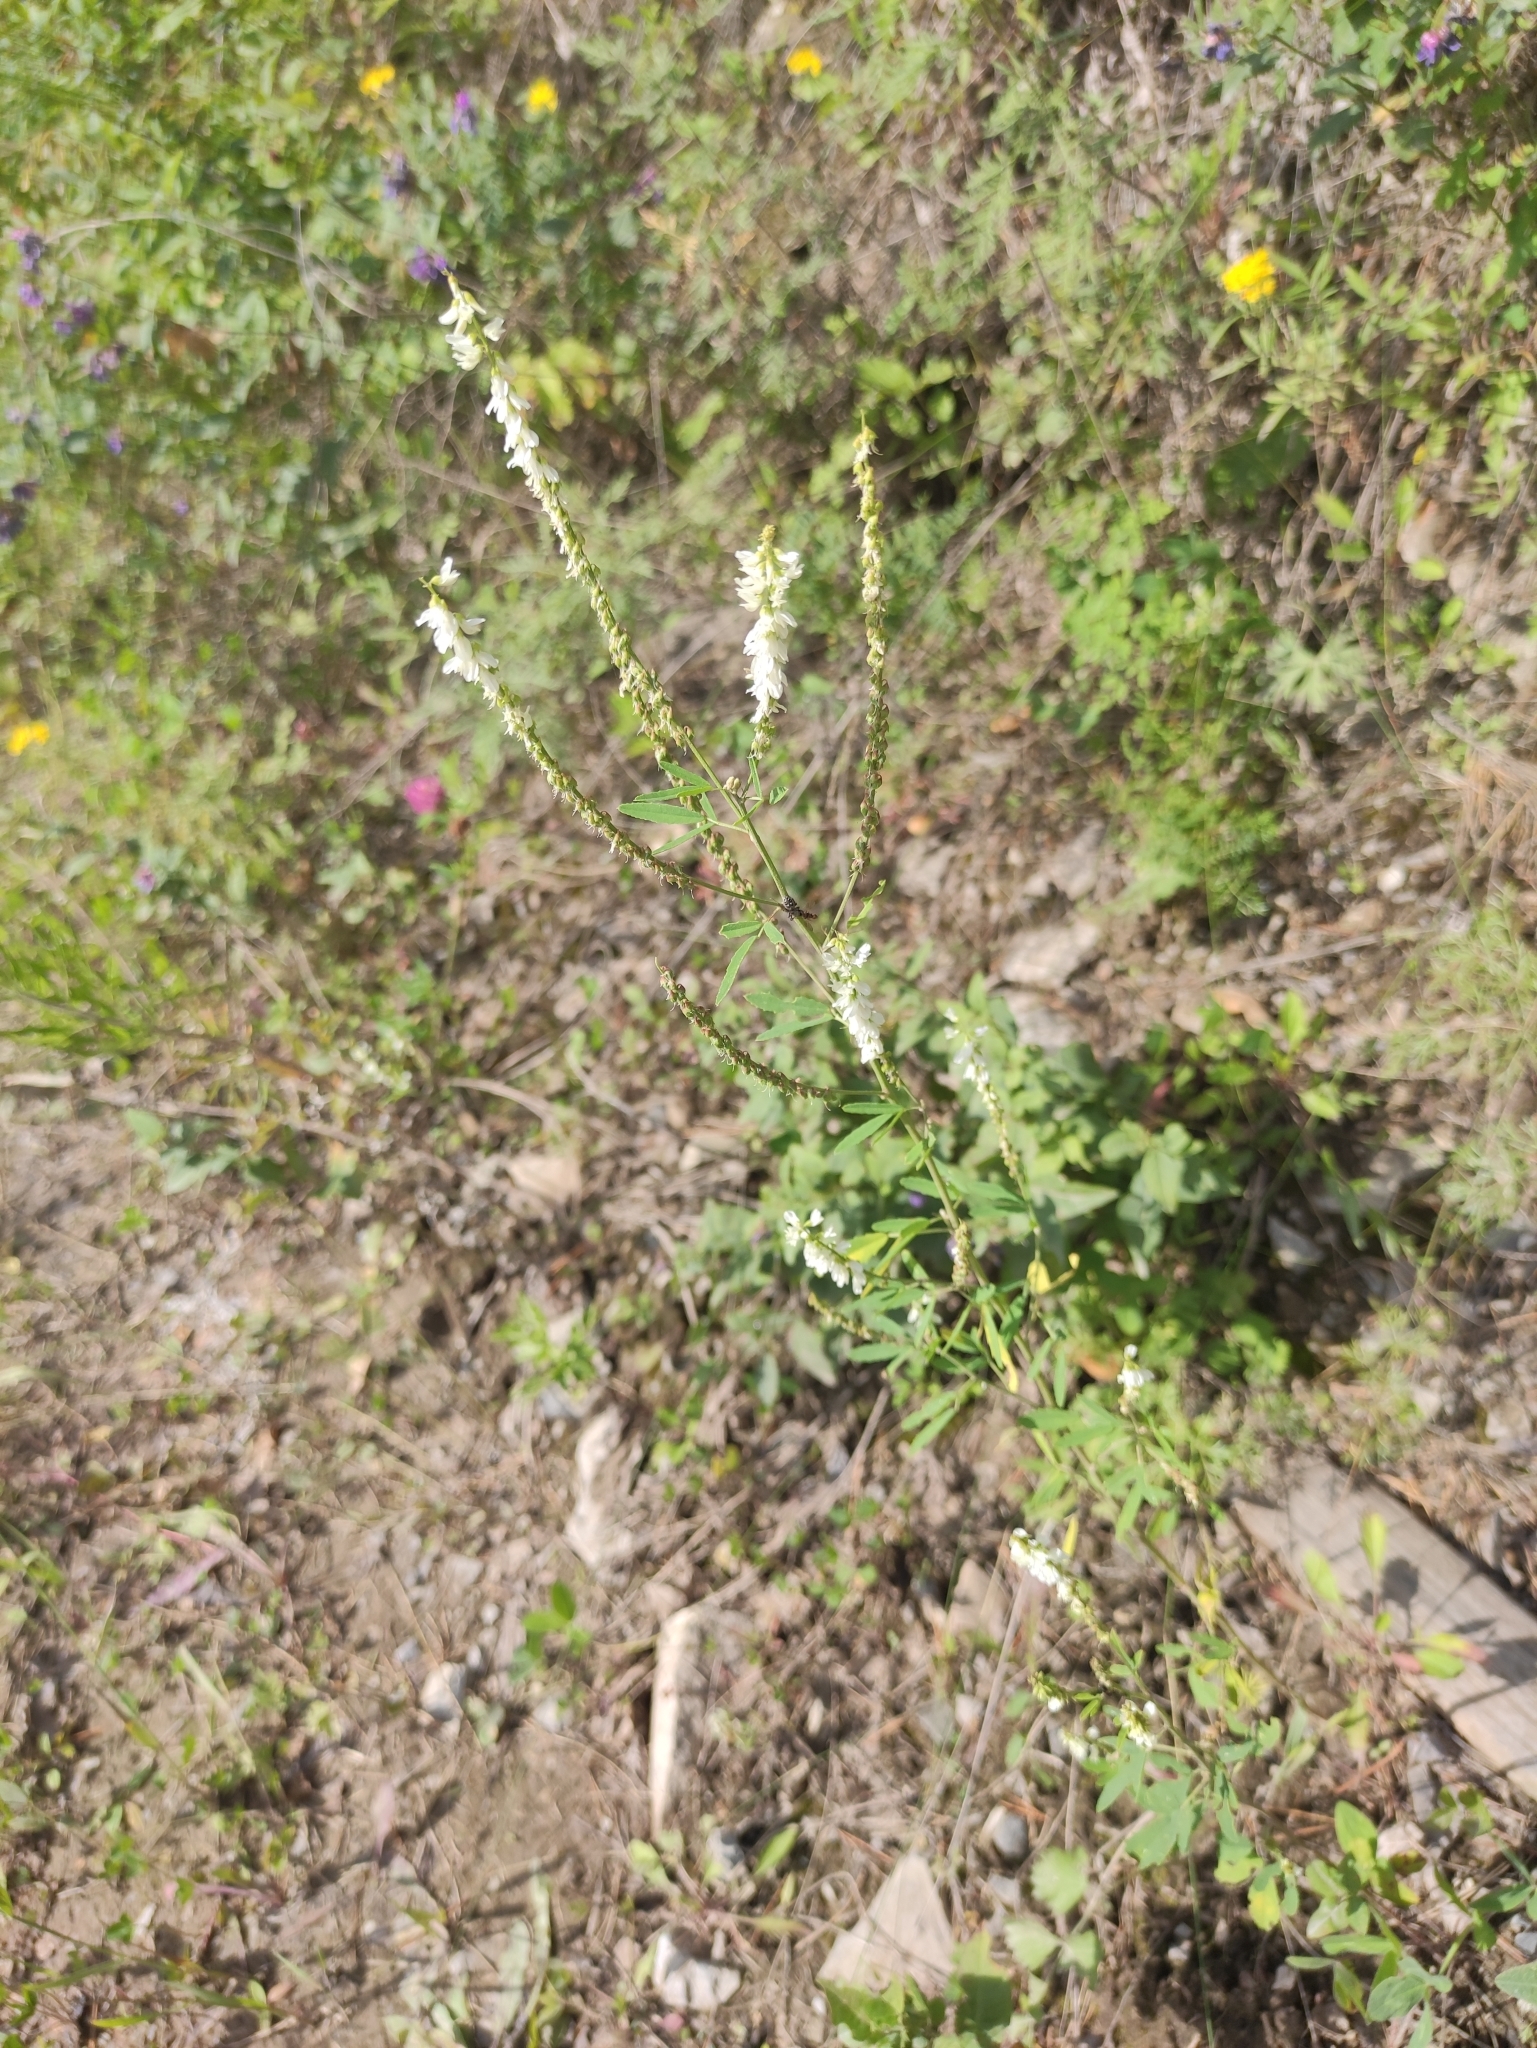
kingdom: Plantae
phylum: Tracheophyta
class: Magnoliopsida
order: Fabales
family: Fabaceae
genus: Melilotus
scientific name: Melilotus albus
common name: White melilot
